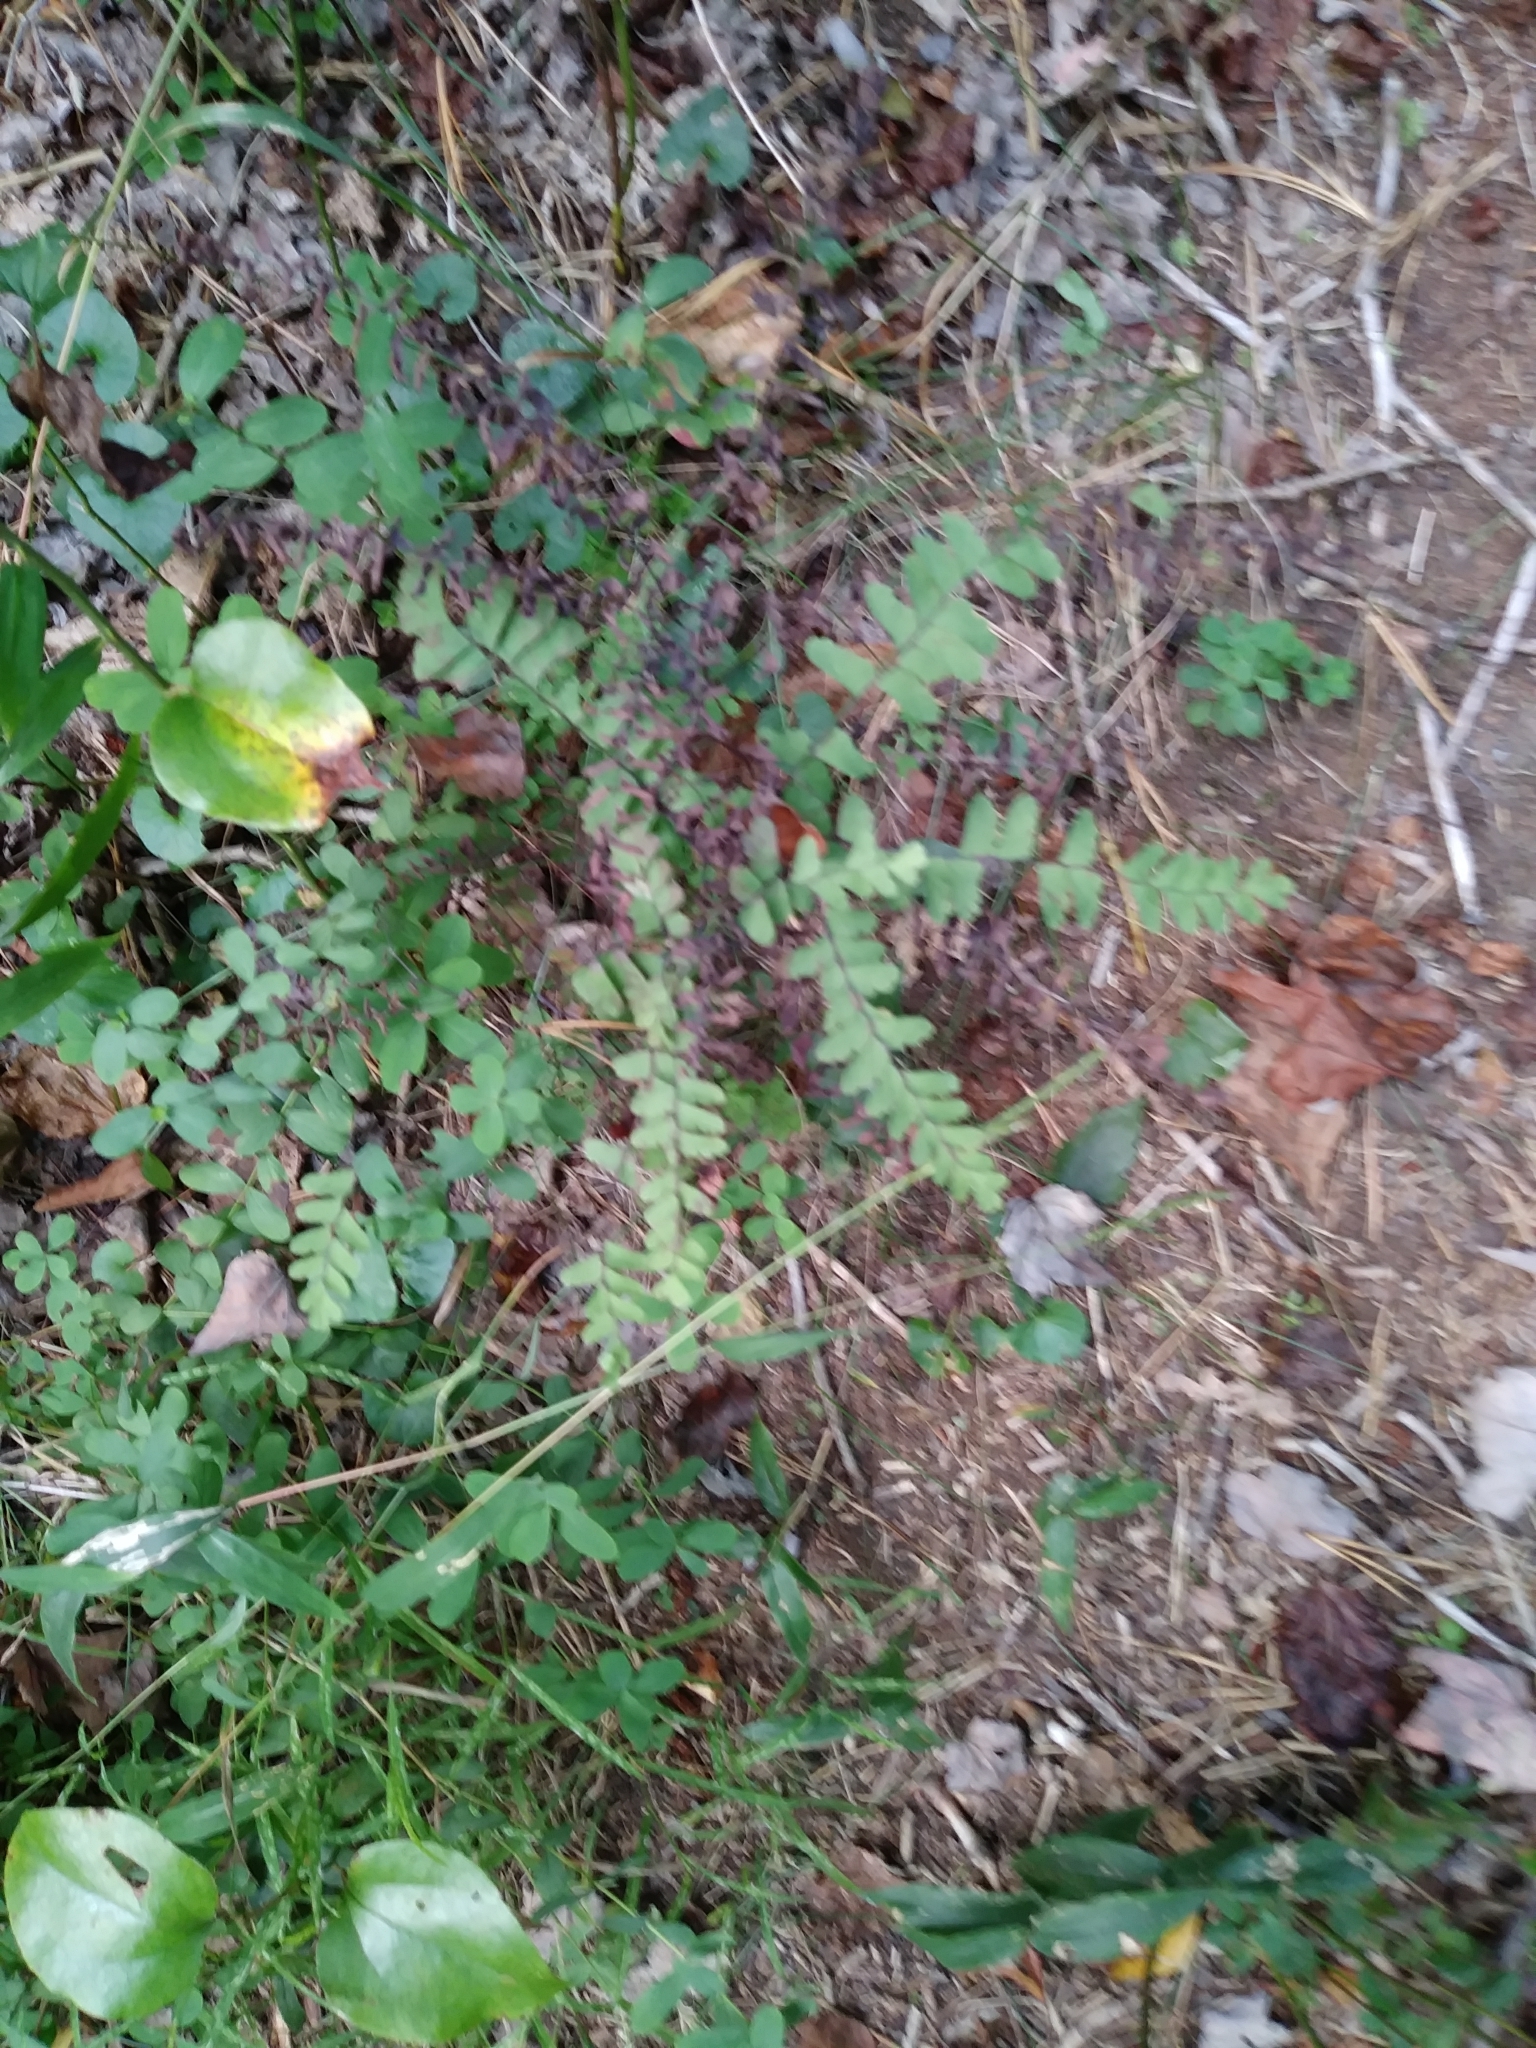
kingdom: Plantae
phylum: Tracheophyta
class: Polypodiopsida
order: Polypodiales
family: Aspleniaceae
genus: Asplenium
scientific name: Asplenium platyneuron
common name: Ebony spleenwort
